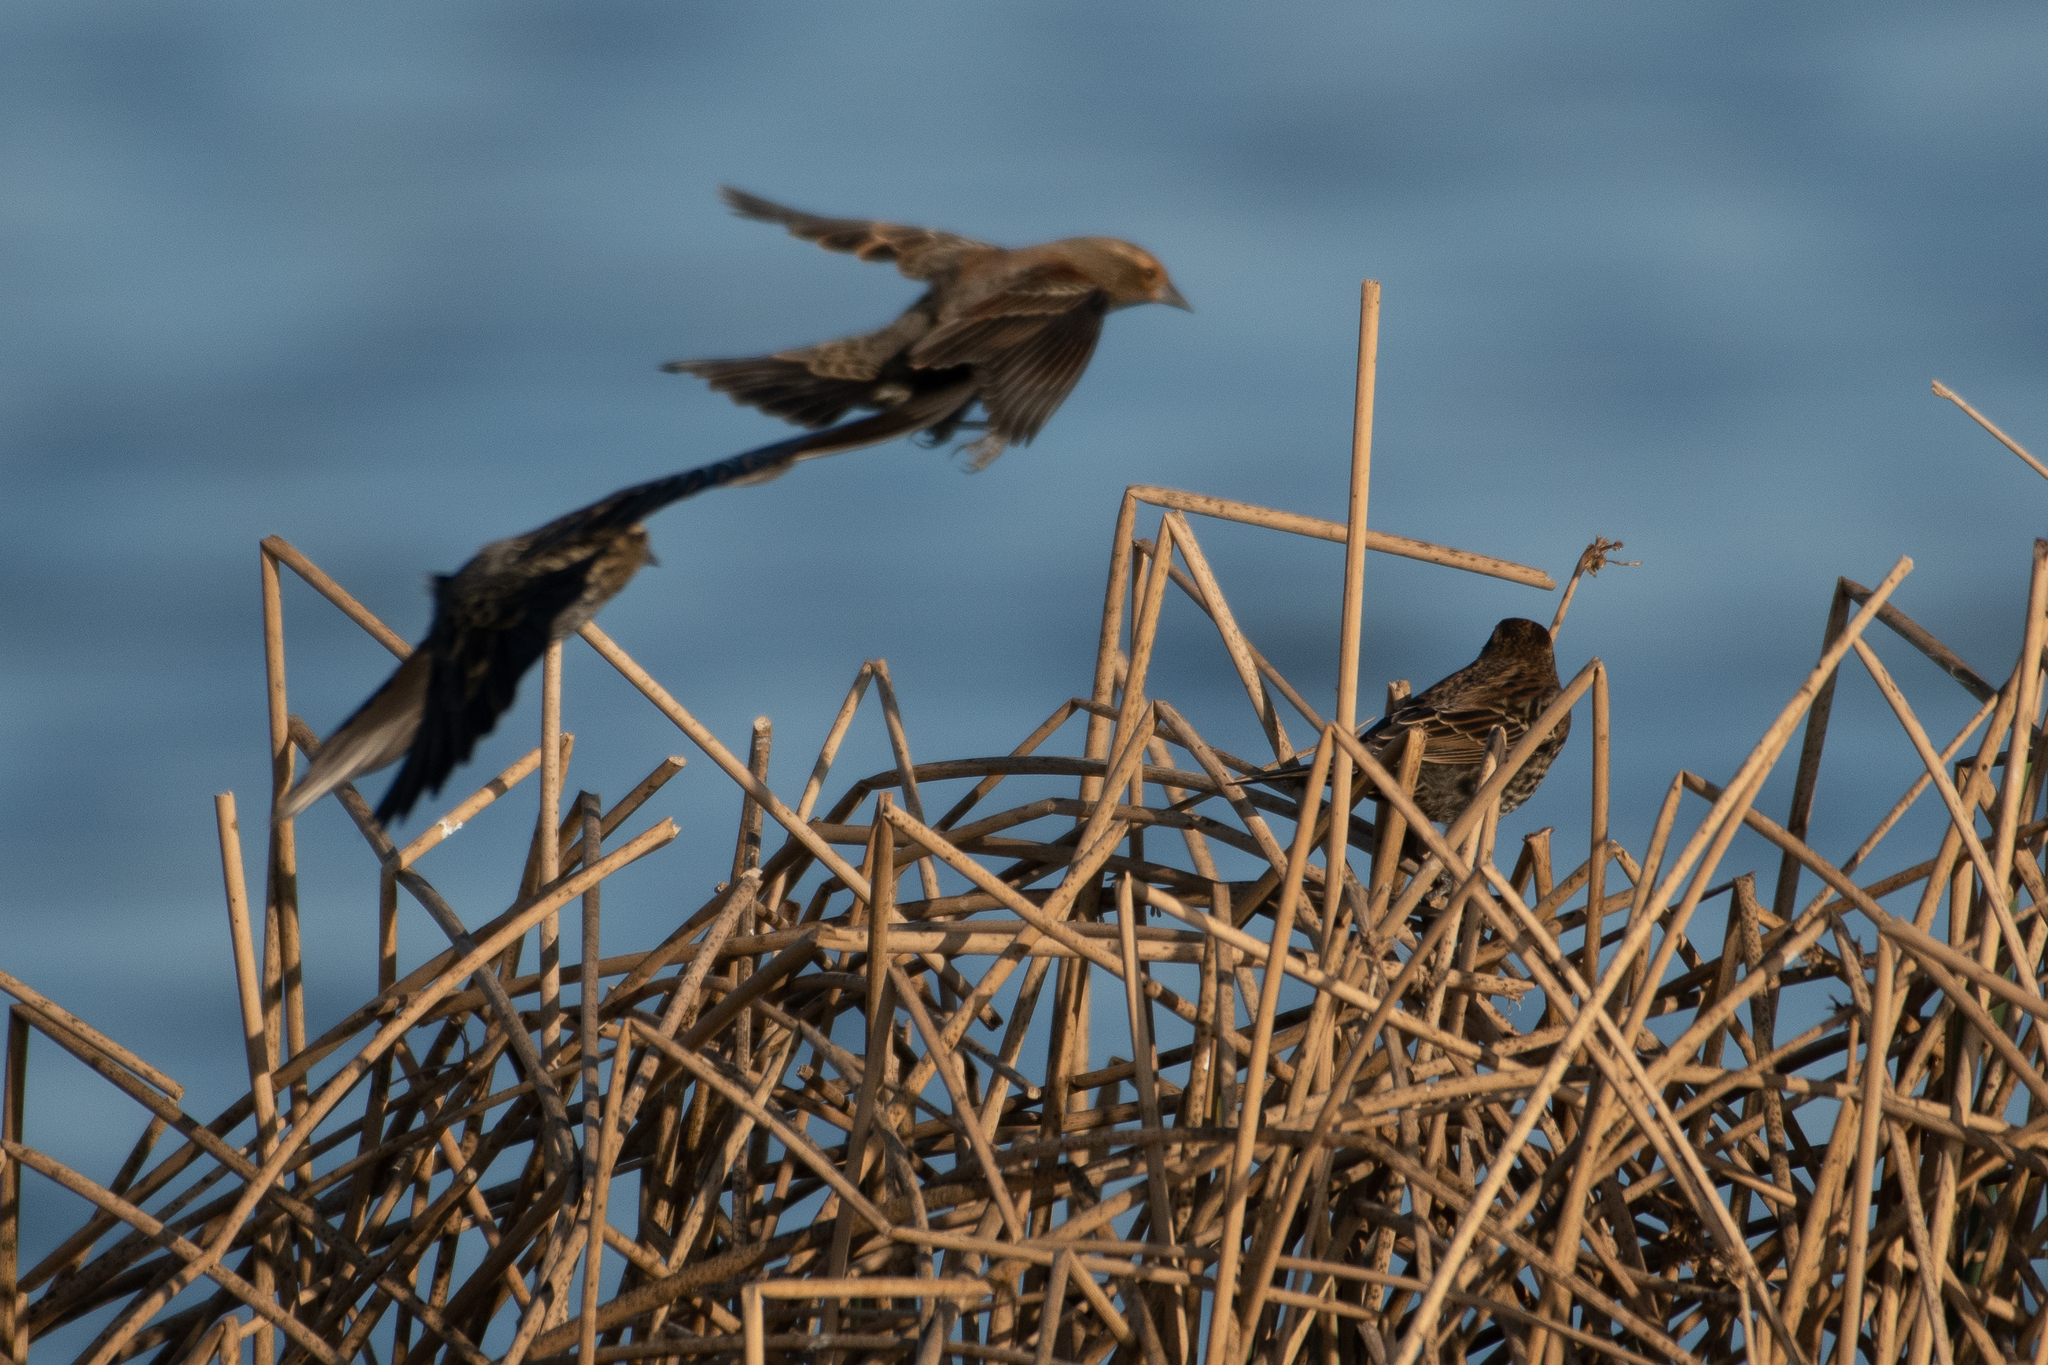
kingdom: Animalia
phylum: Chordata
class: Aves
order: Passeriformes
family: Icteridae
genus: Agelaius
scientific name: Agelaius phoeniceus
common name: Red-winged blackbird
